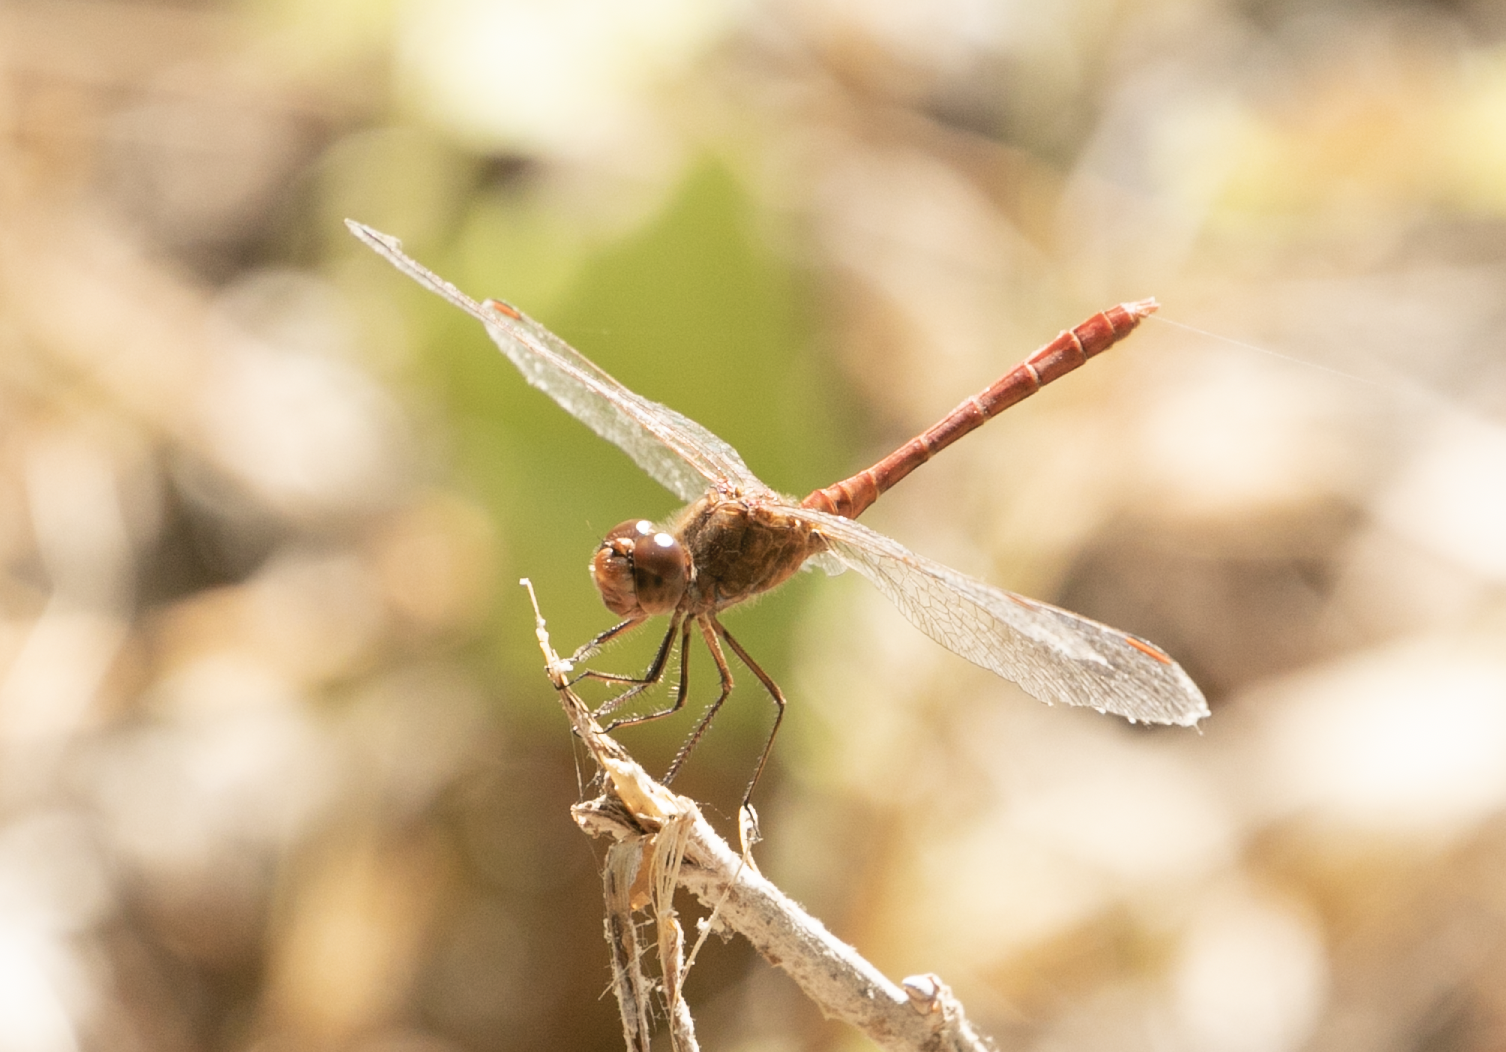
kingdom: Animalia
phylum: Arthropoda
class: Insecta
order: Odonata
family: Libellulidae
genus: Sympetrum
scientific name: Sympetrum meridionale
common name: Southern darter
